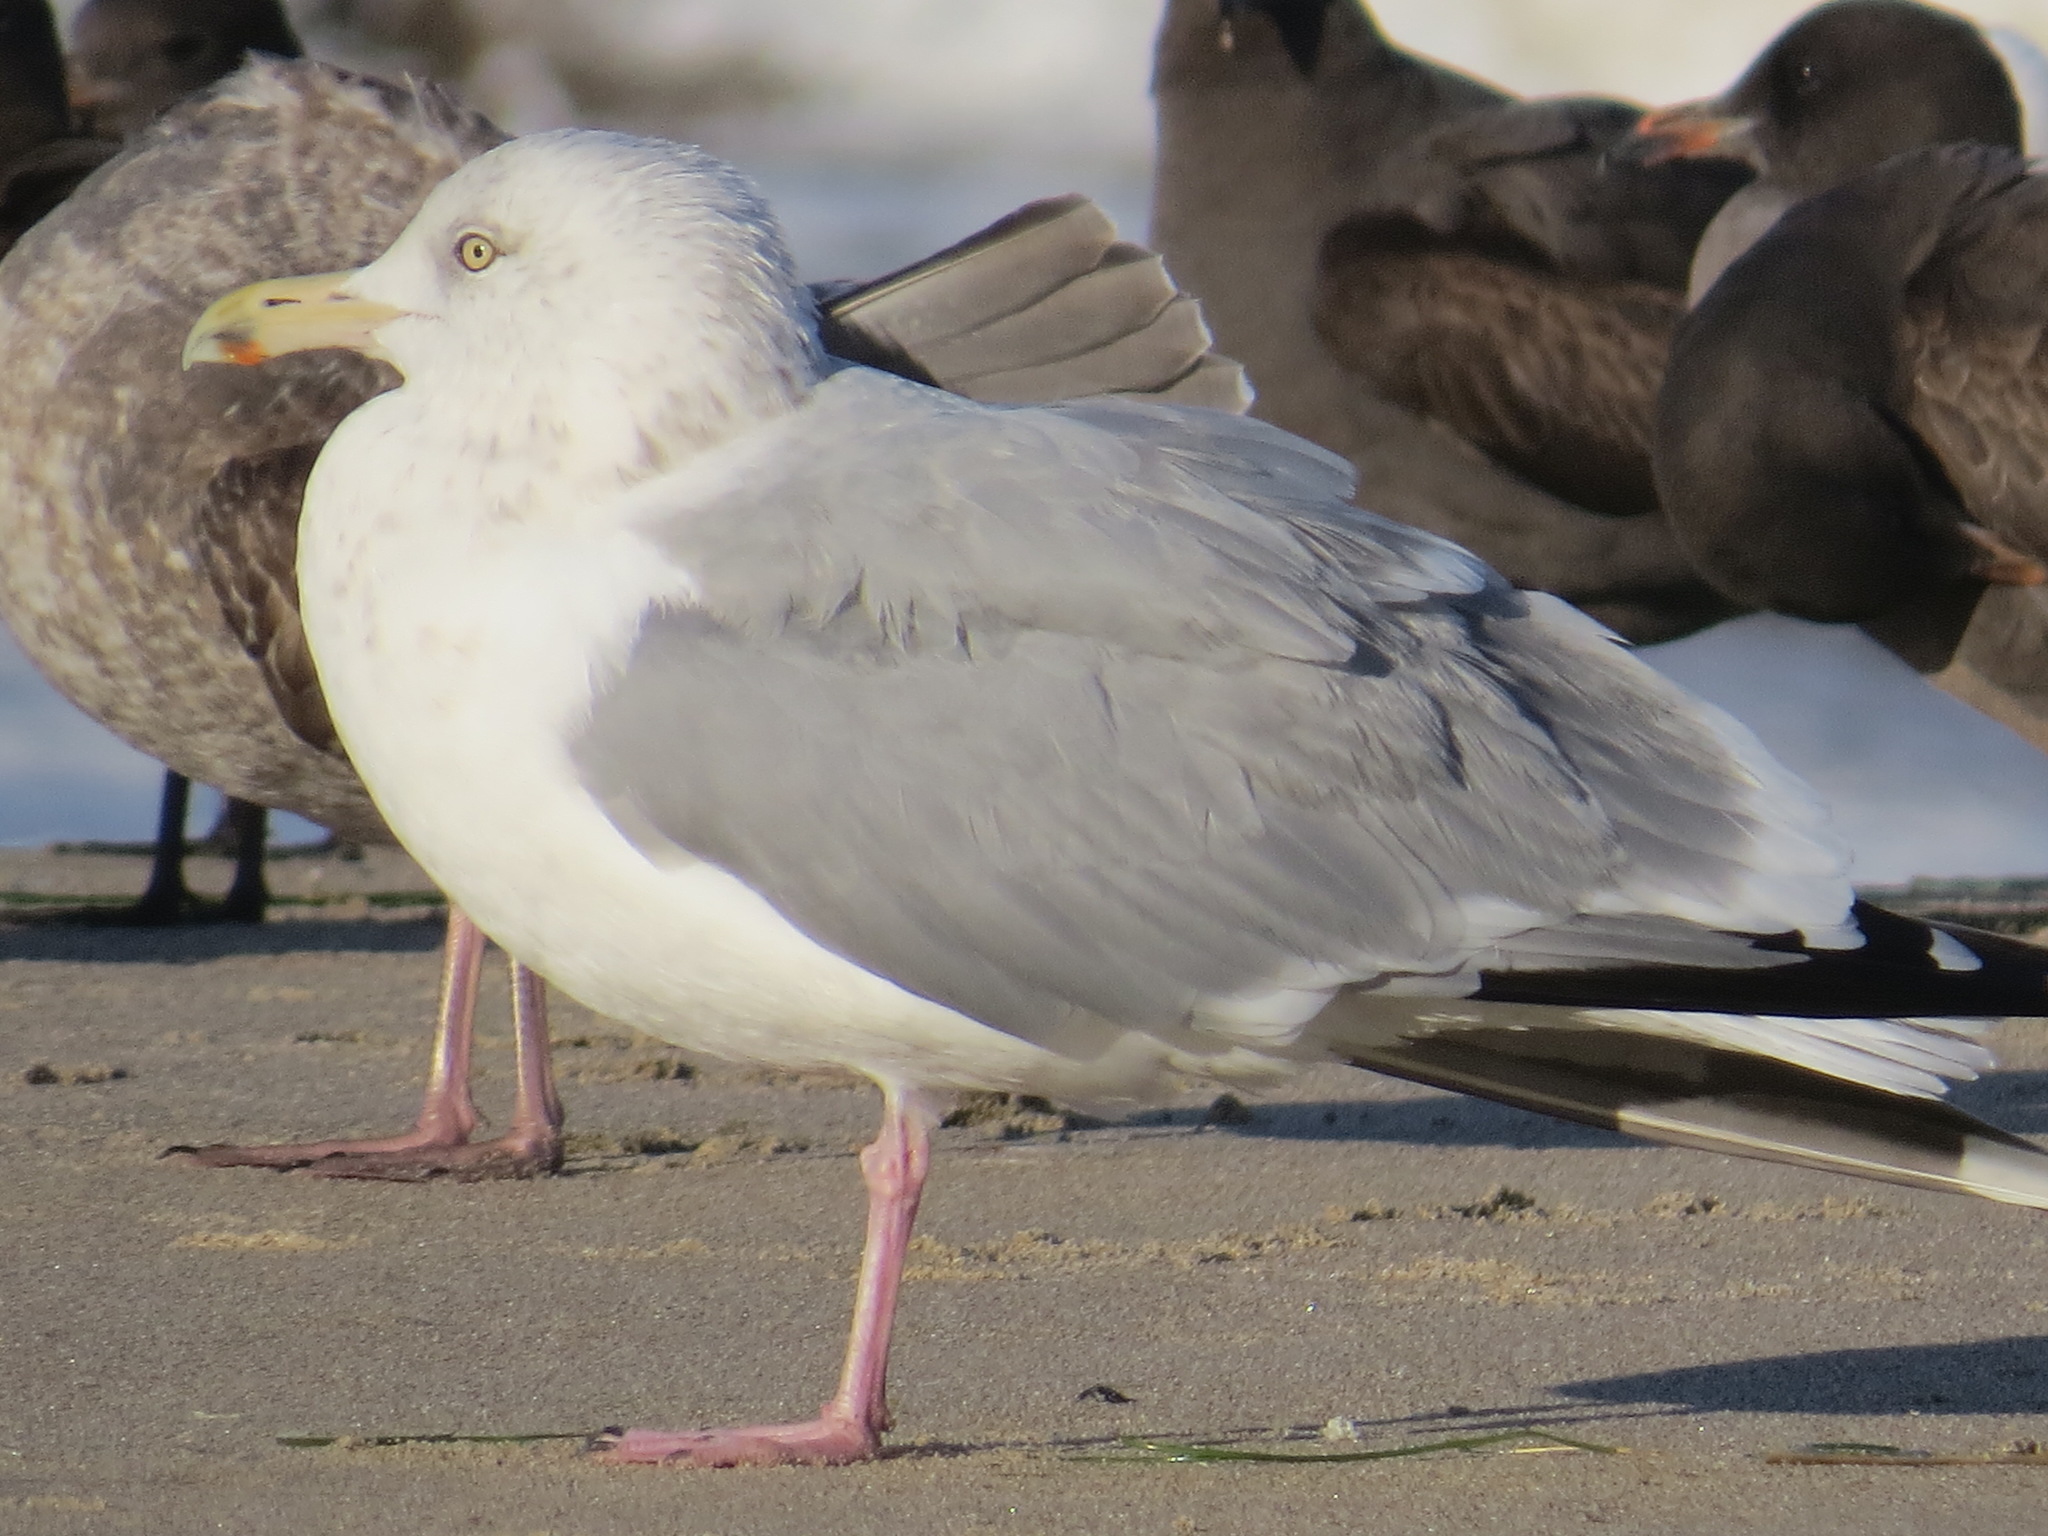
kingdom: Animalia
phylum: Chordata
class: Aves
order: Charadriiformes
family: Laridae
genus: Larus
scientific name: Larus glaucoides
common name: Iceland gull
